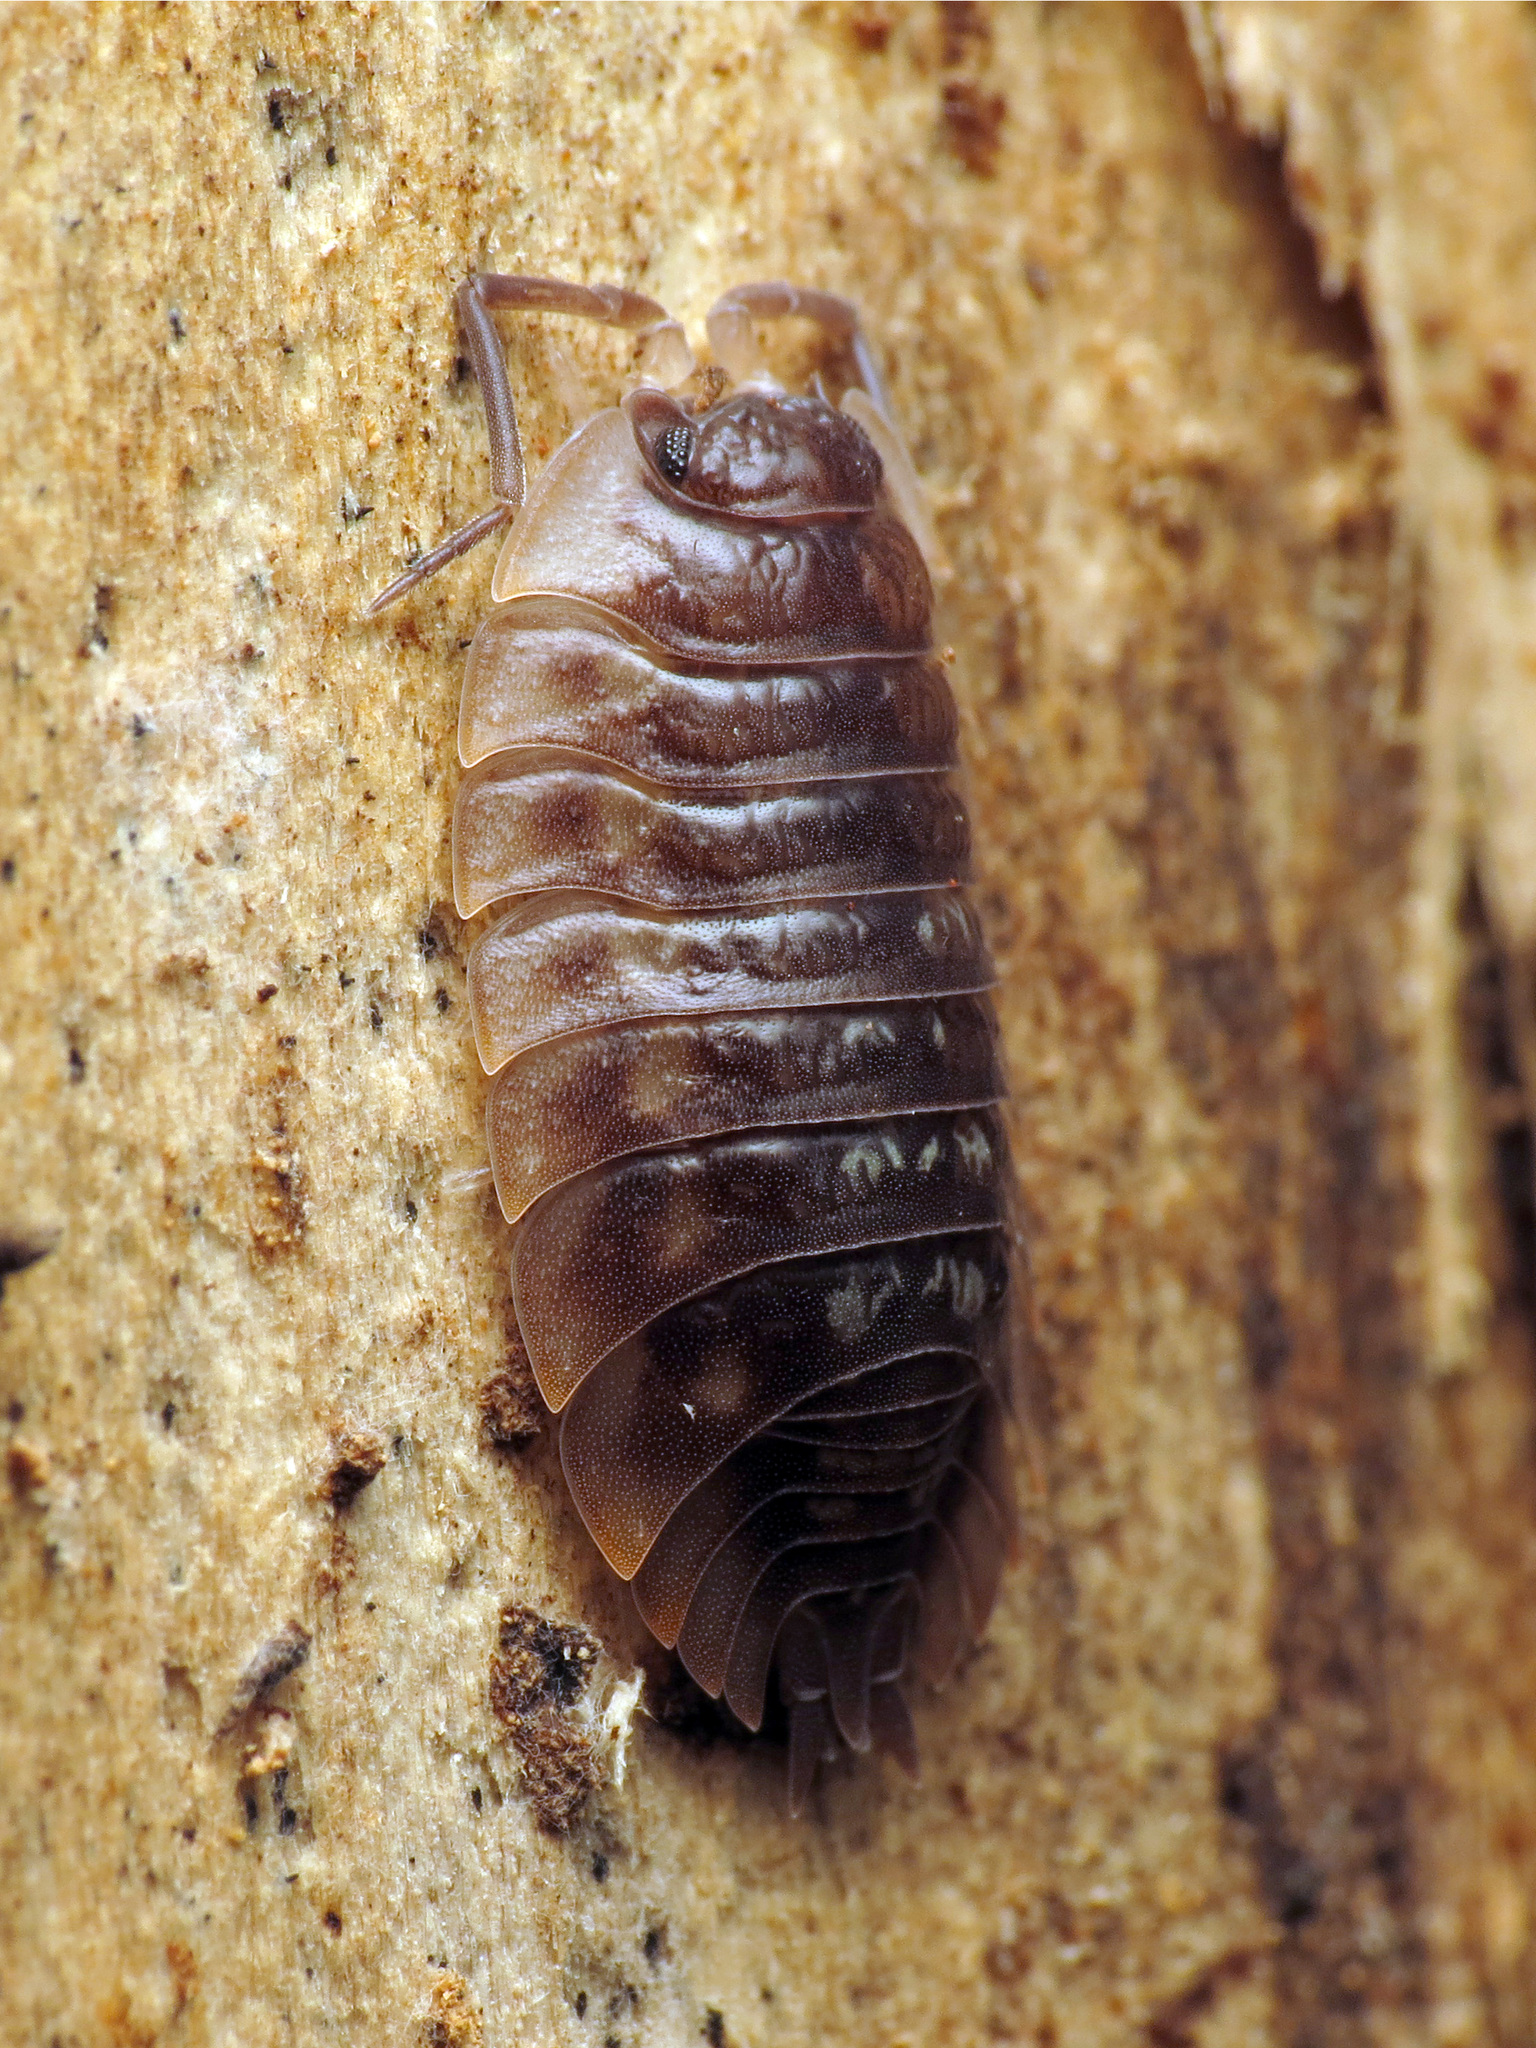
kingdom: Animalia
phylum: Arthropoda
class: Malacostraca
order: Isopoda
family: Oniscidae
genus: Oniscus
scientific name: Oniscus asellus
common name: Common shiny woodlouse
